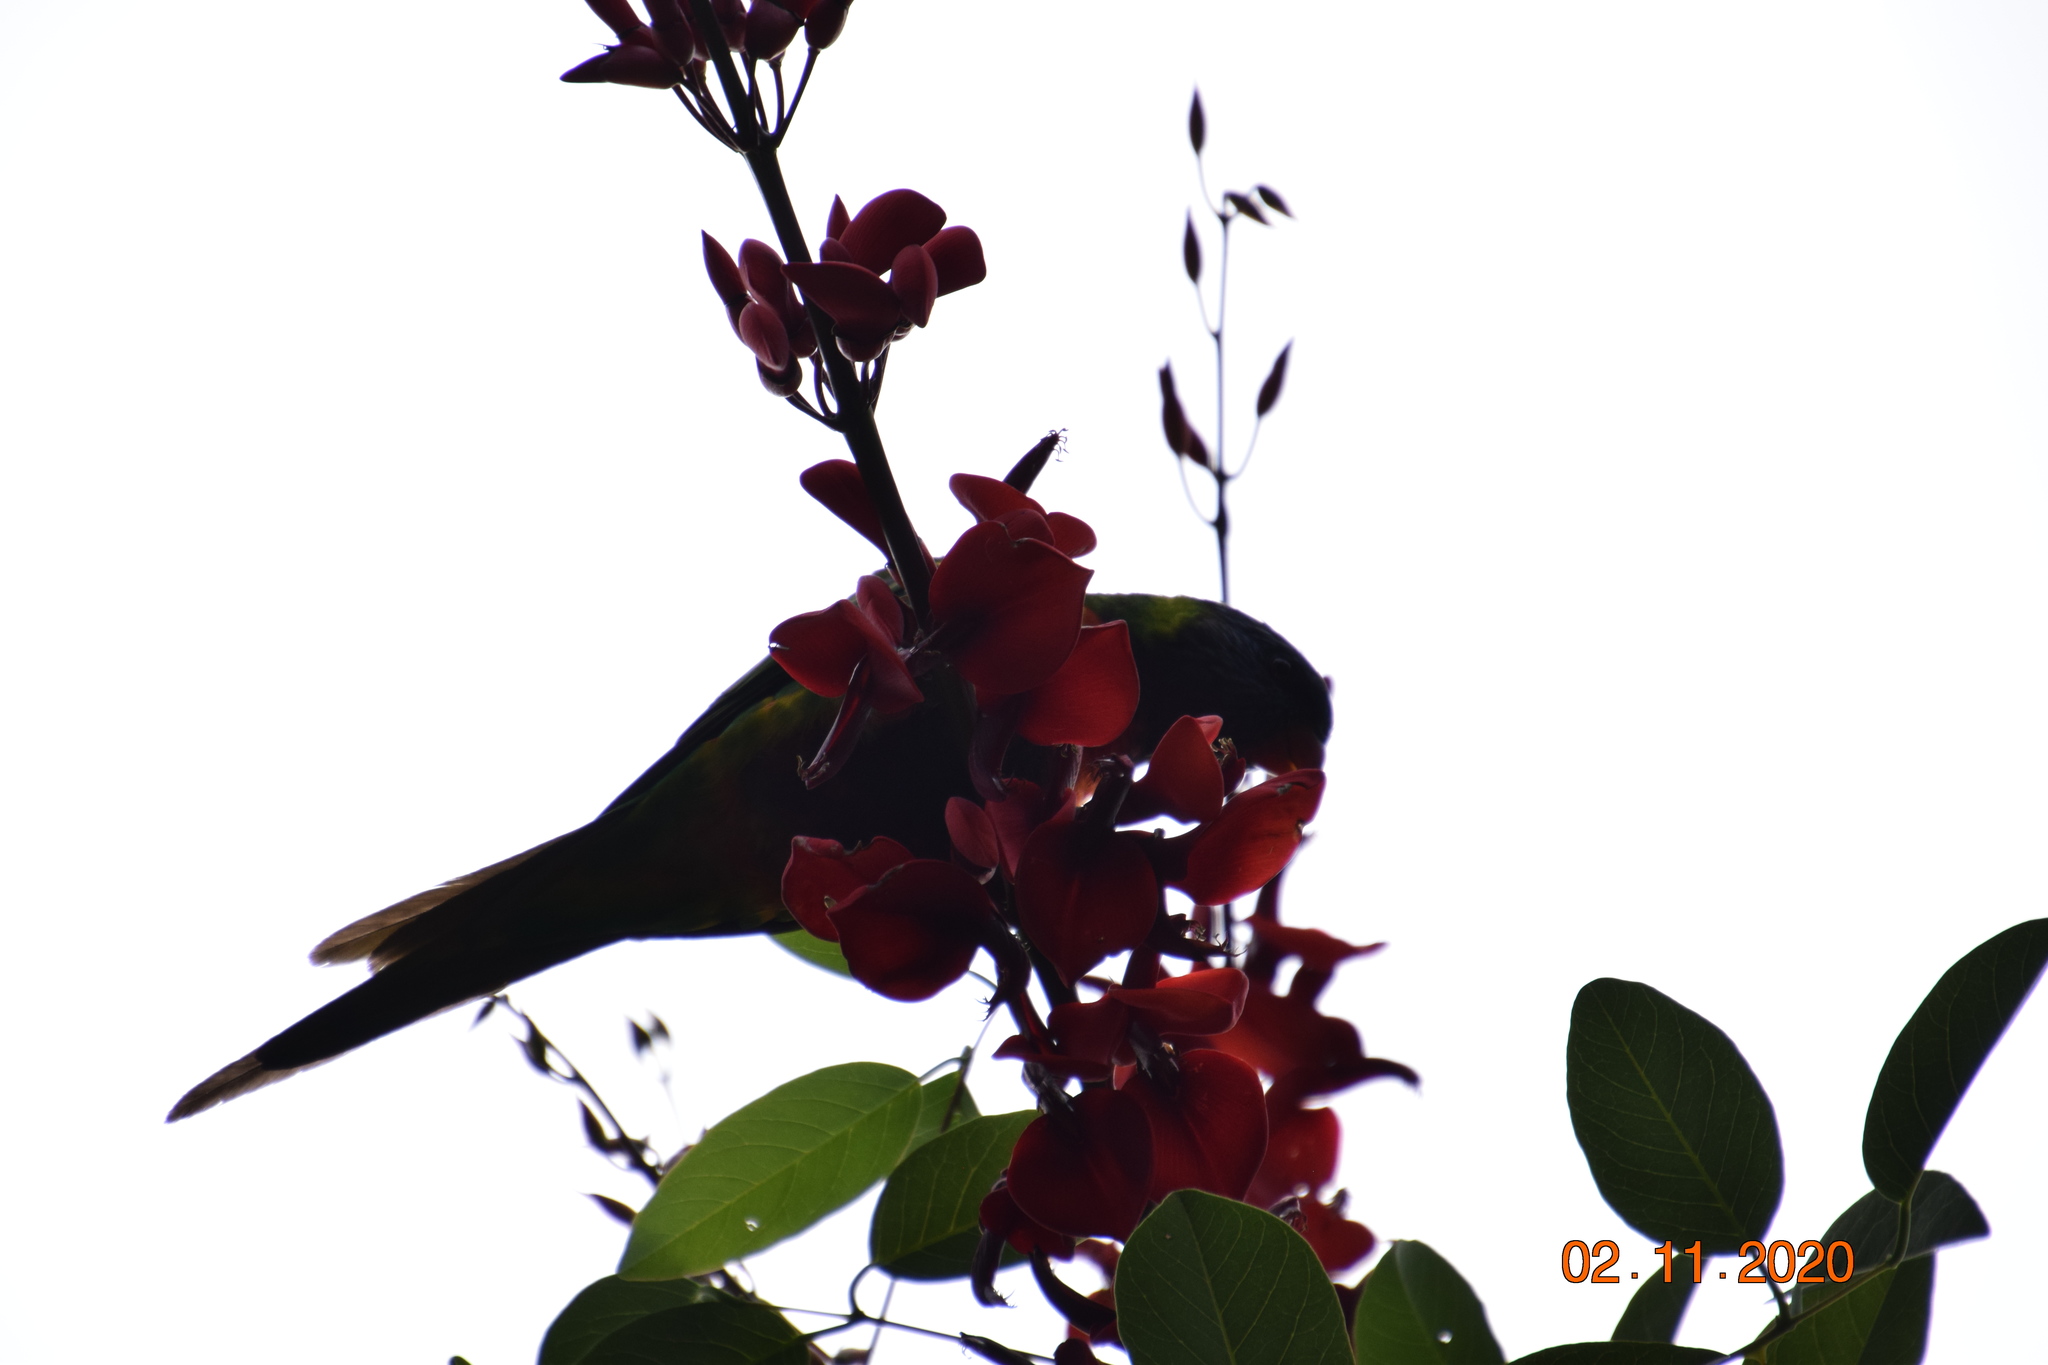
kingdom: Animalia
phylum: Chordata
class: Aves
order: Psittaciformes
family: Psittacidae
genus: Trichoglossus
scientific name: Trichoglossus haematodus
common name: Coconut lorikeet
